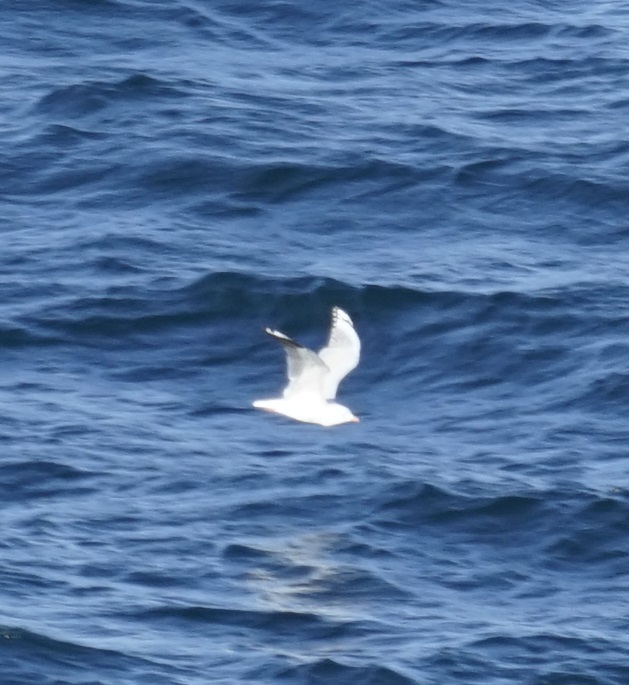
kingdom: Animalia
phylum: Chordata
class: Aves
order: Charadriiformes
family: Laridae
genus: Chroicocephalus
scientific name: Chroicocephalus novaehollandiae
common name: Silver gull
